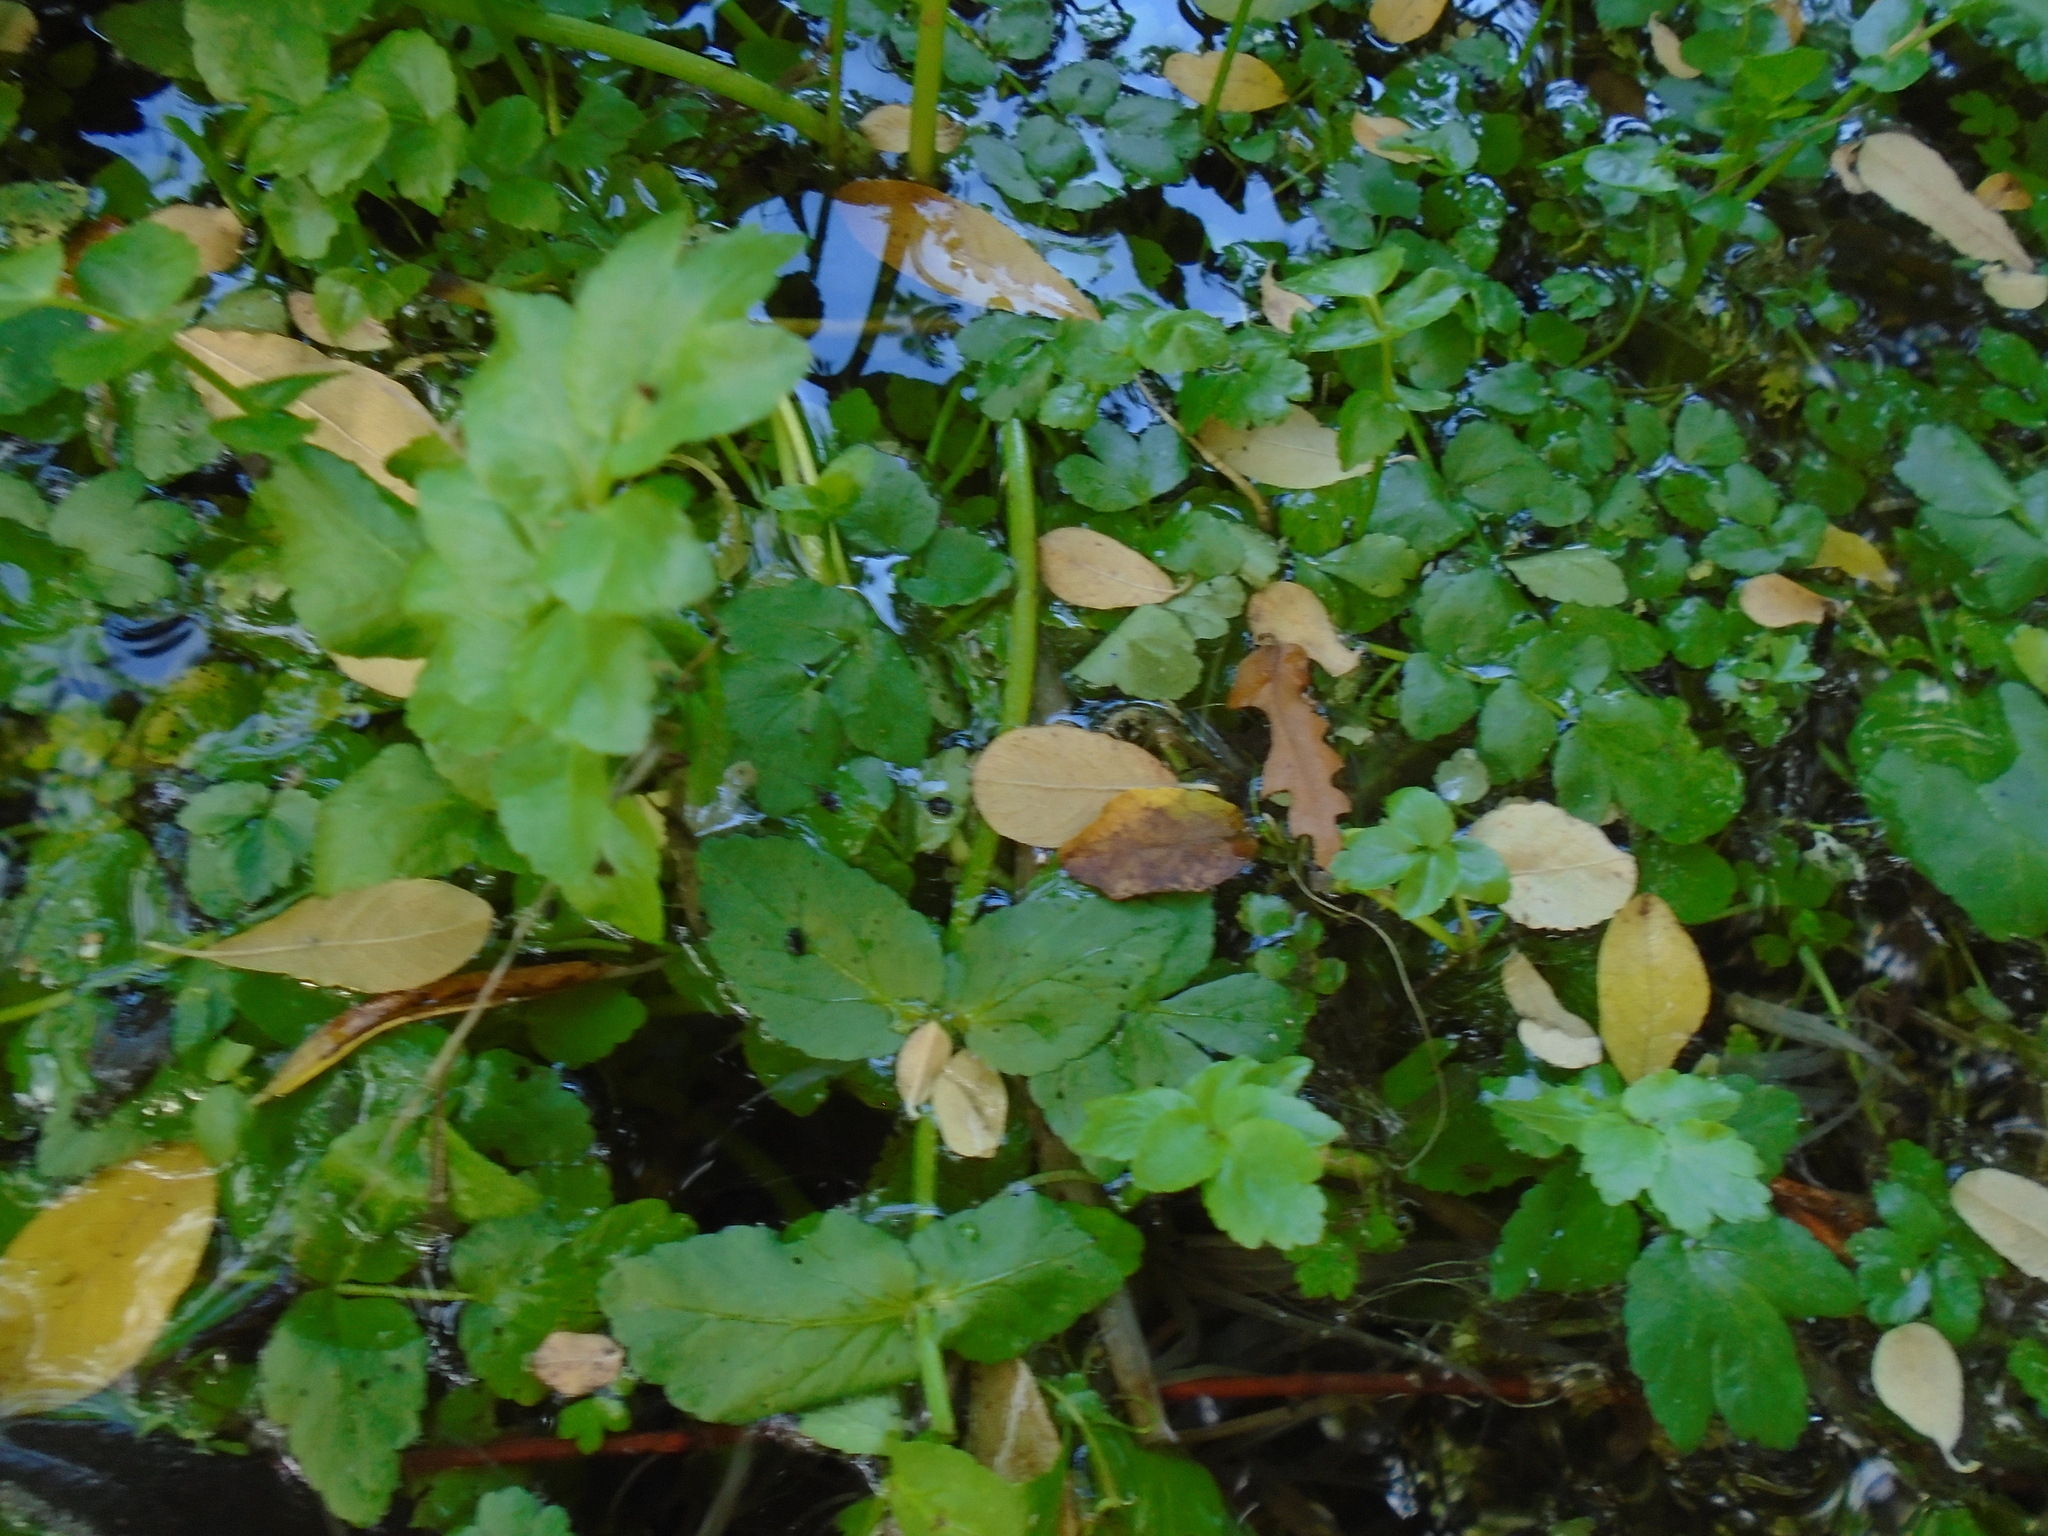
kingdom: Plantae
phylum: Tracheophyta
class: Magnoliopsida
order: Apiales
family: Apiaceae
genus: Helosciadium
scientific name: Helosciadium nodiflorum
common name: Fool's-watercress
